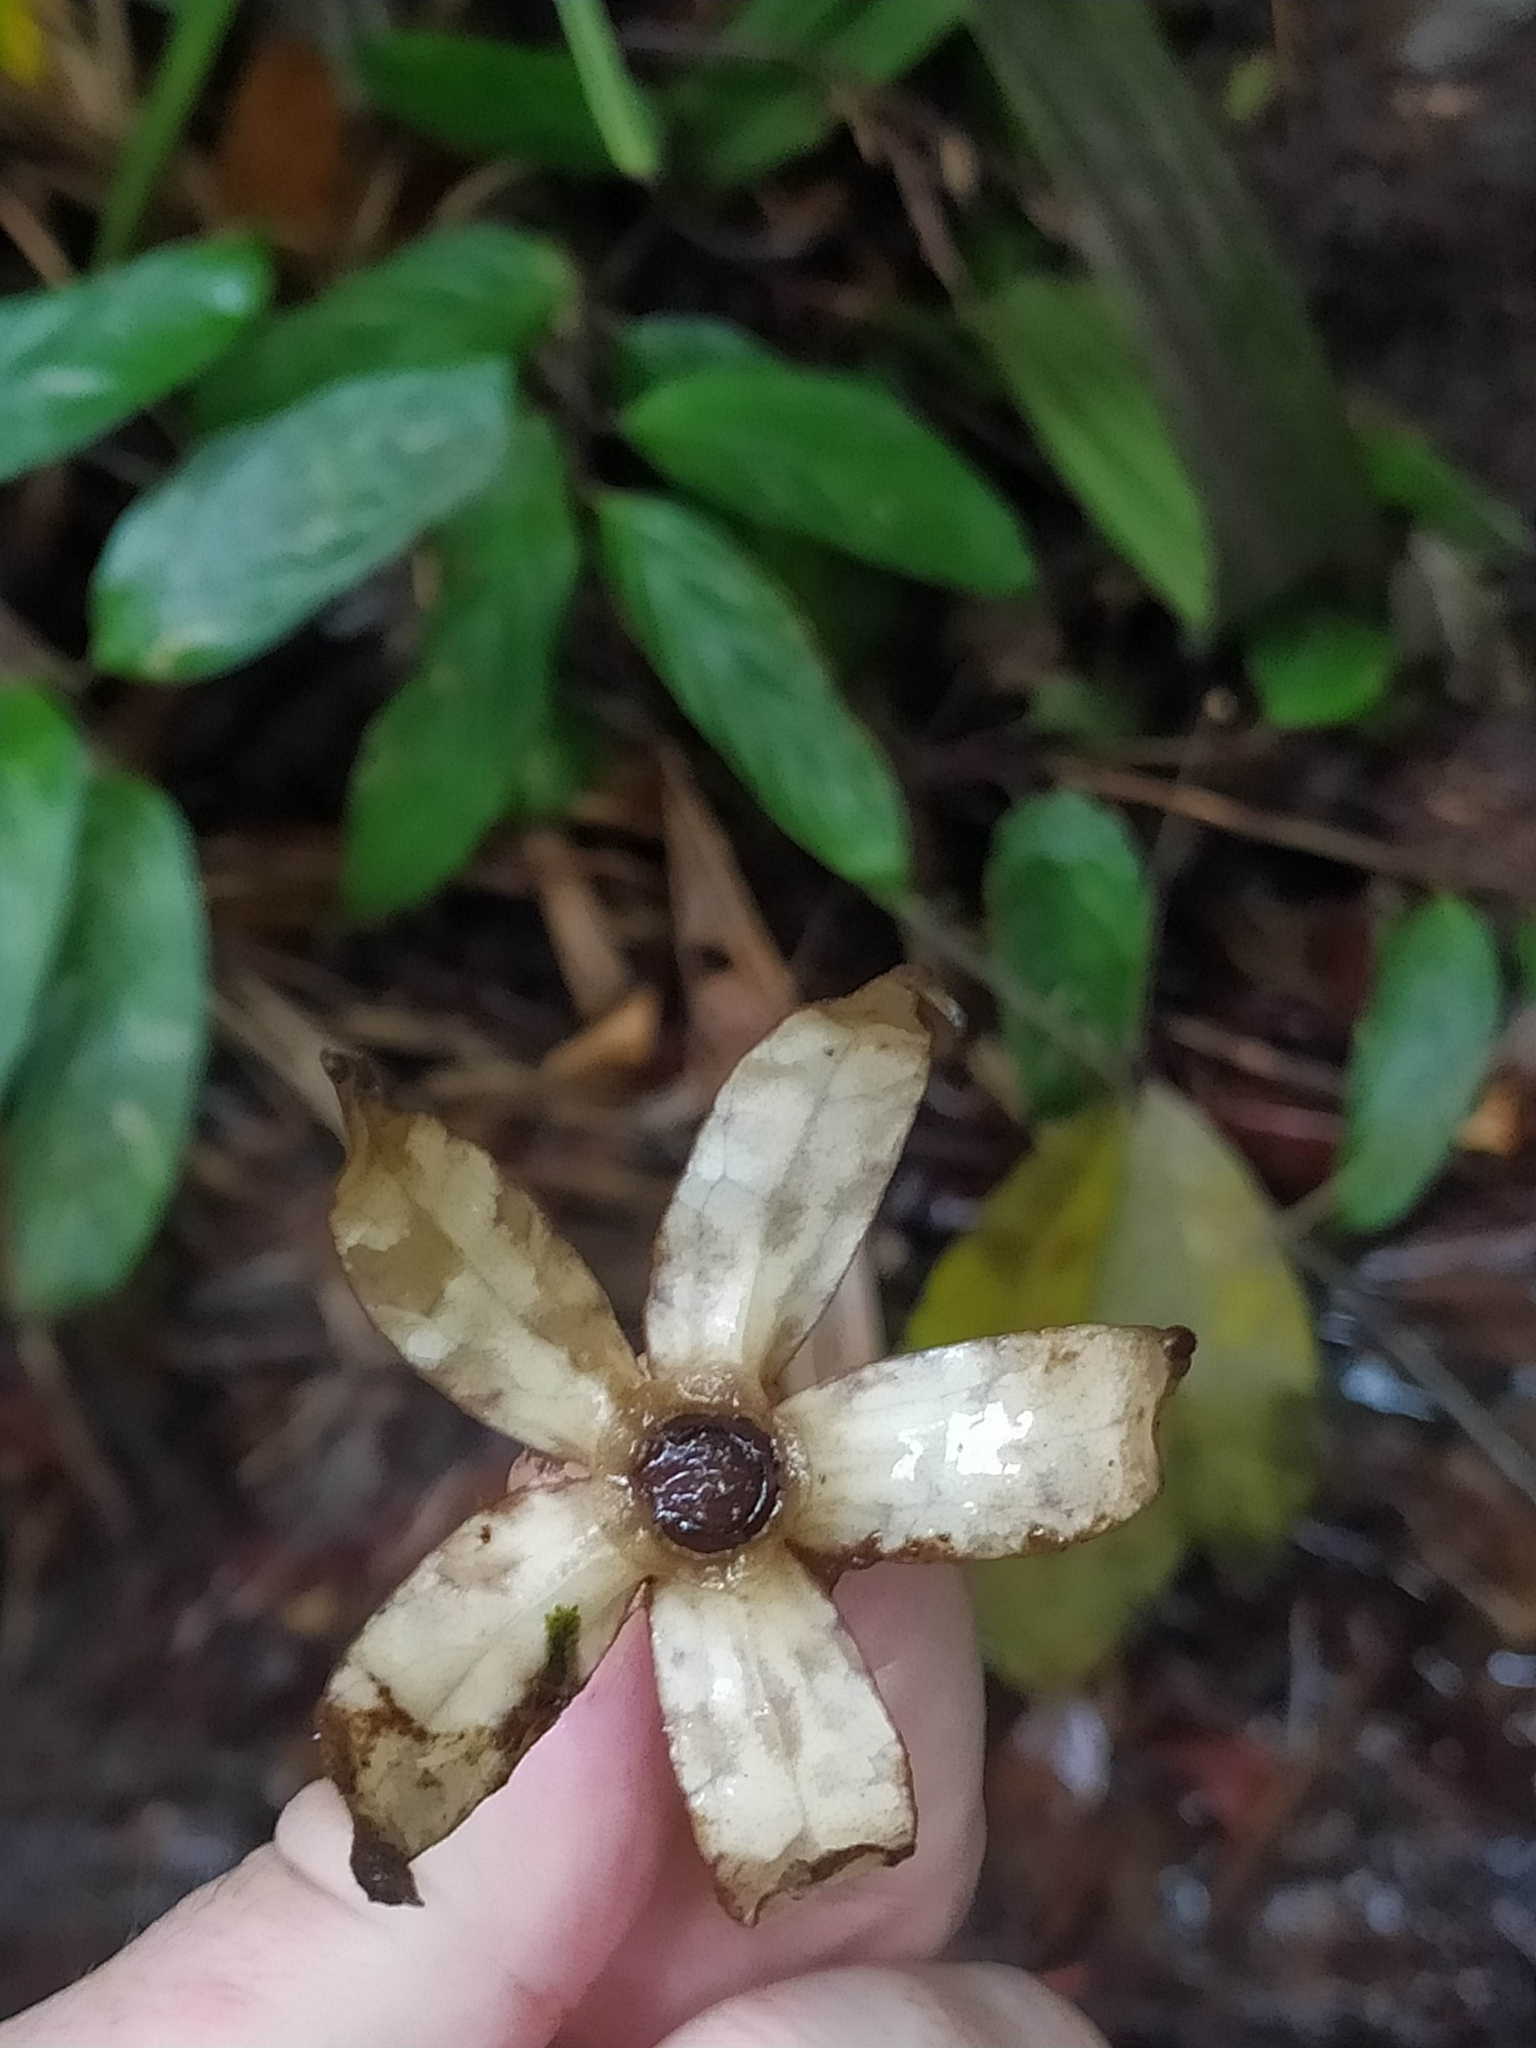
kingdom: Plantae
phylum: Tracheophyta
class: Magnoliopsida
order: Solanales
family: Solanaceae
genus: Markea
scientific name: Markea longiflora
